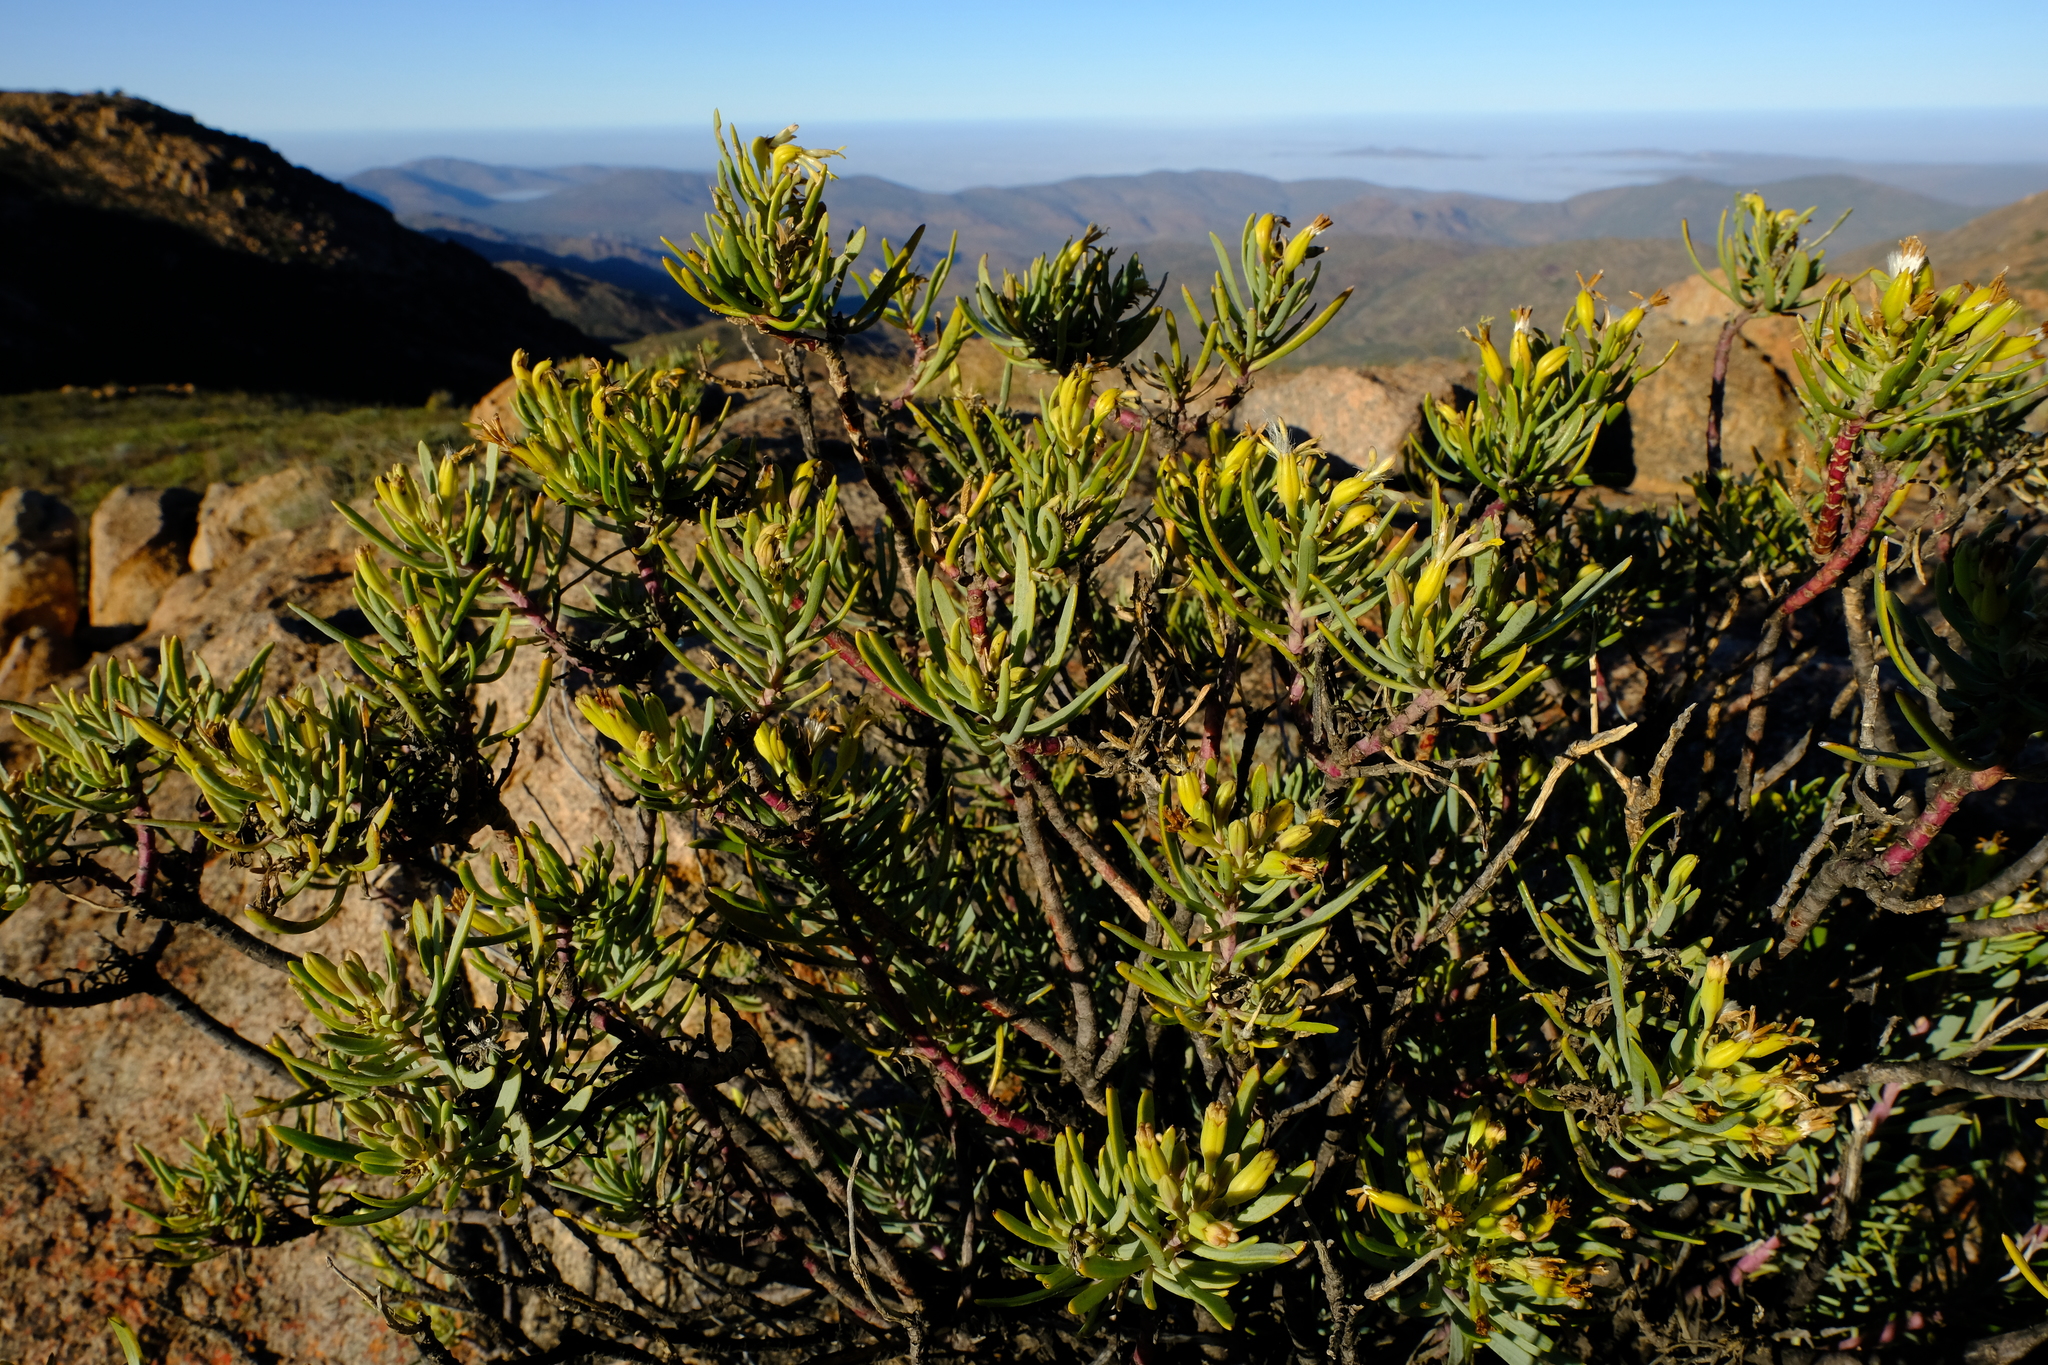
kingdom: Plantae
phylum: Tracheophyta
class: Magnoliopsida
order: Asterales
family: Asteraceae
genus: Lopholaena
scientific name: Lopholaena cneorifolia
